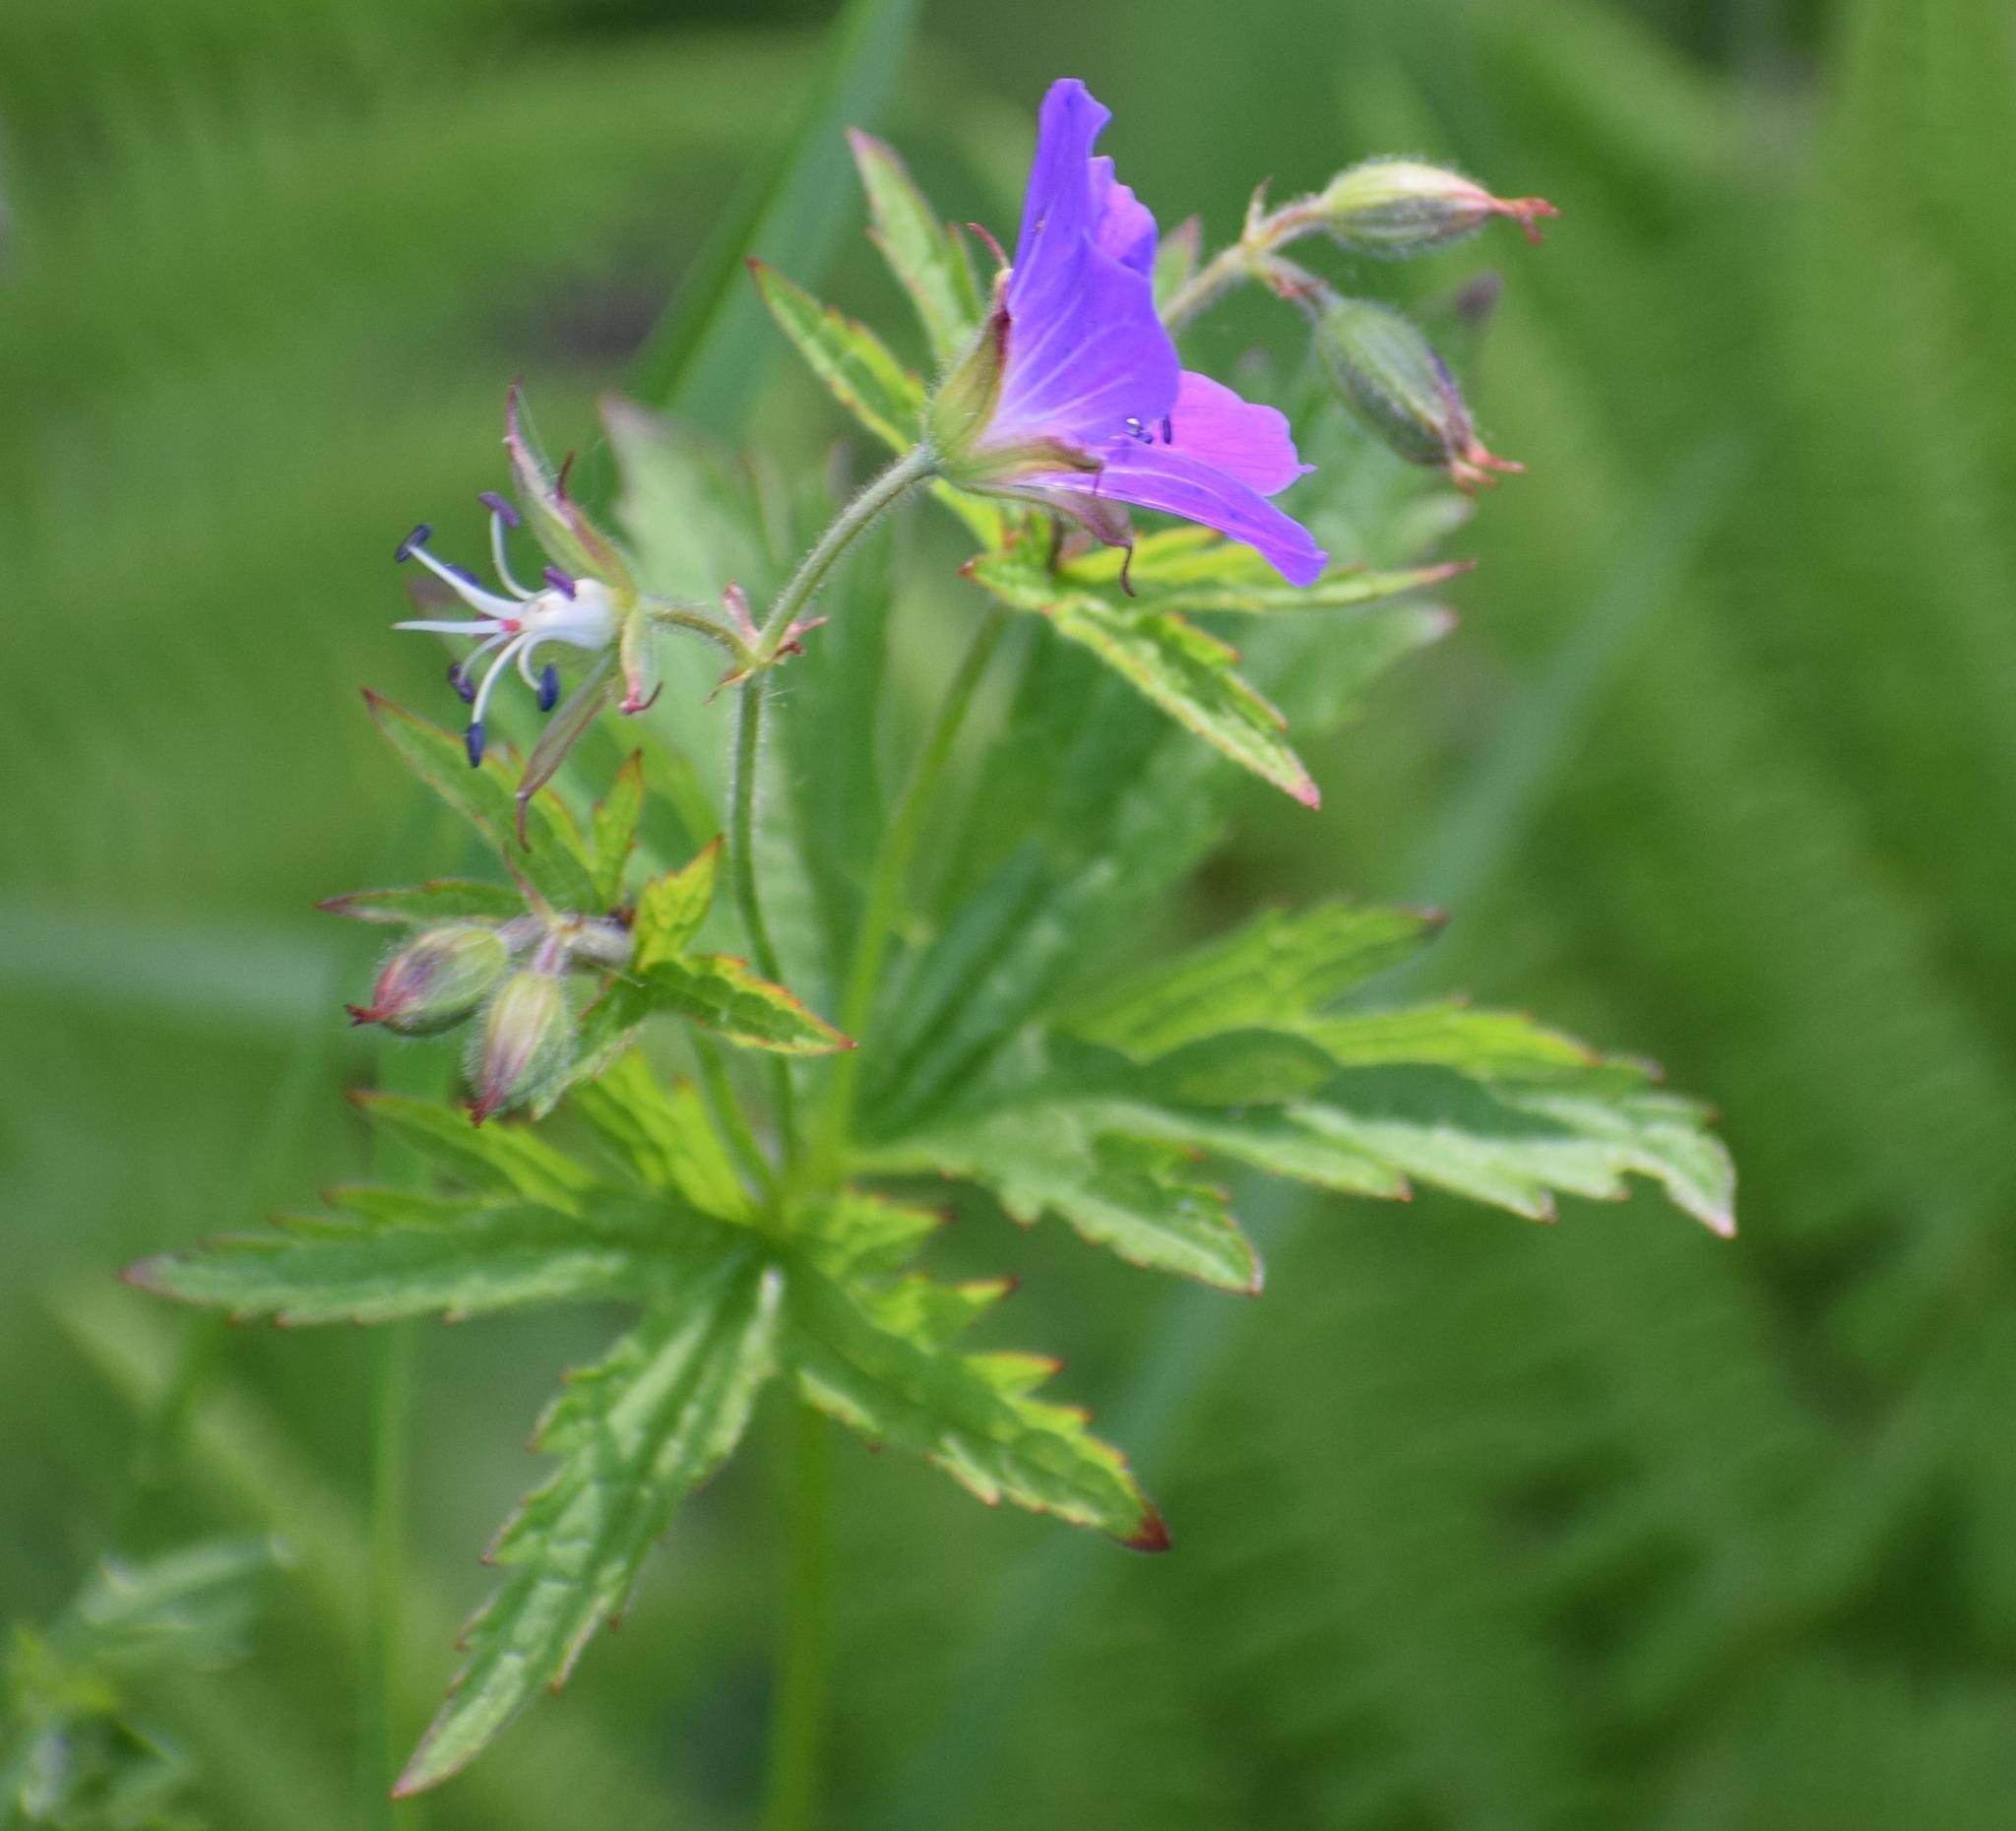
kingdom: Plantae
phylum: Tracheophyta
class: Magnoliopsida
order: Geraniales
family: Geraniaceae
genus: Geranium
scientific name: Geranium sylvaticum
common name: Wood crane's-bill
